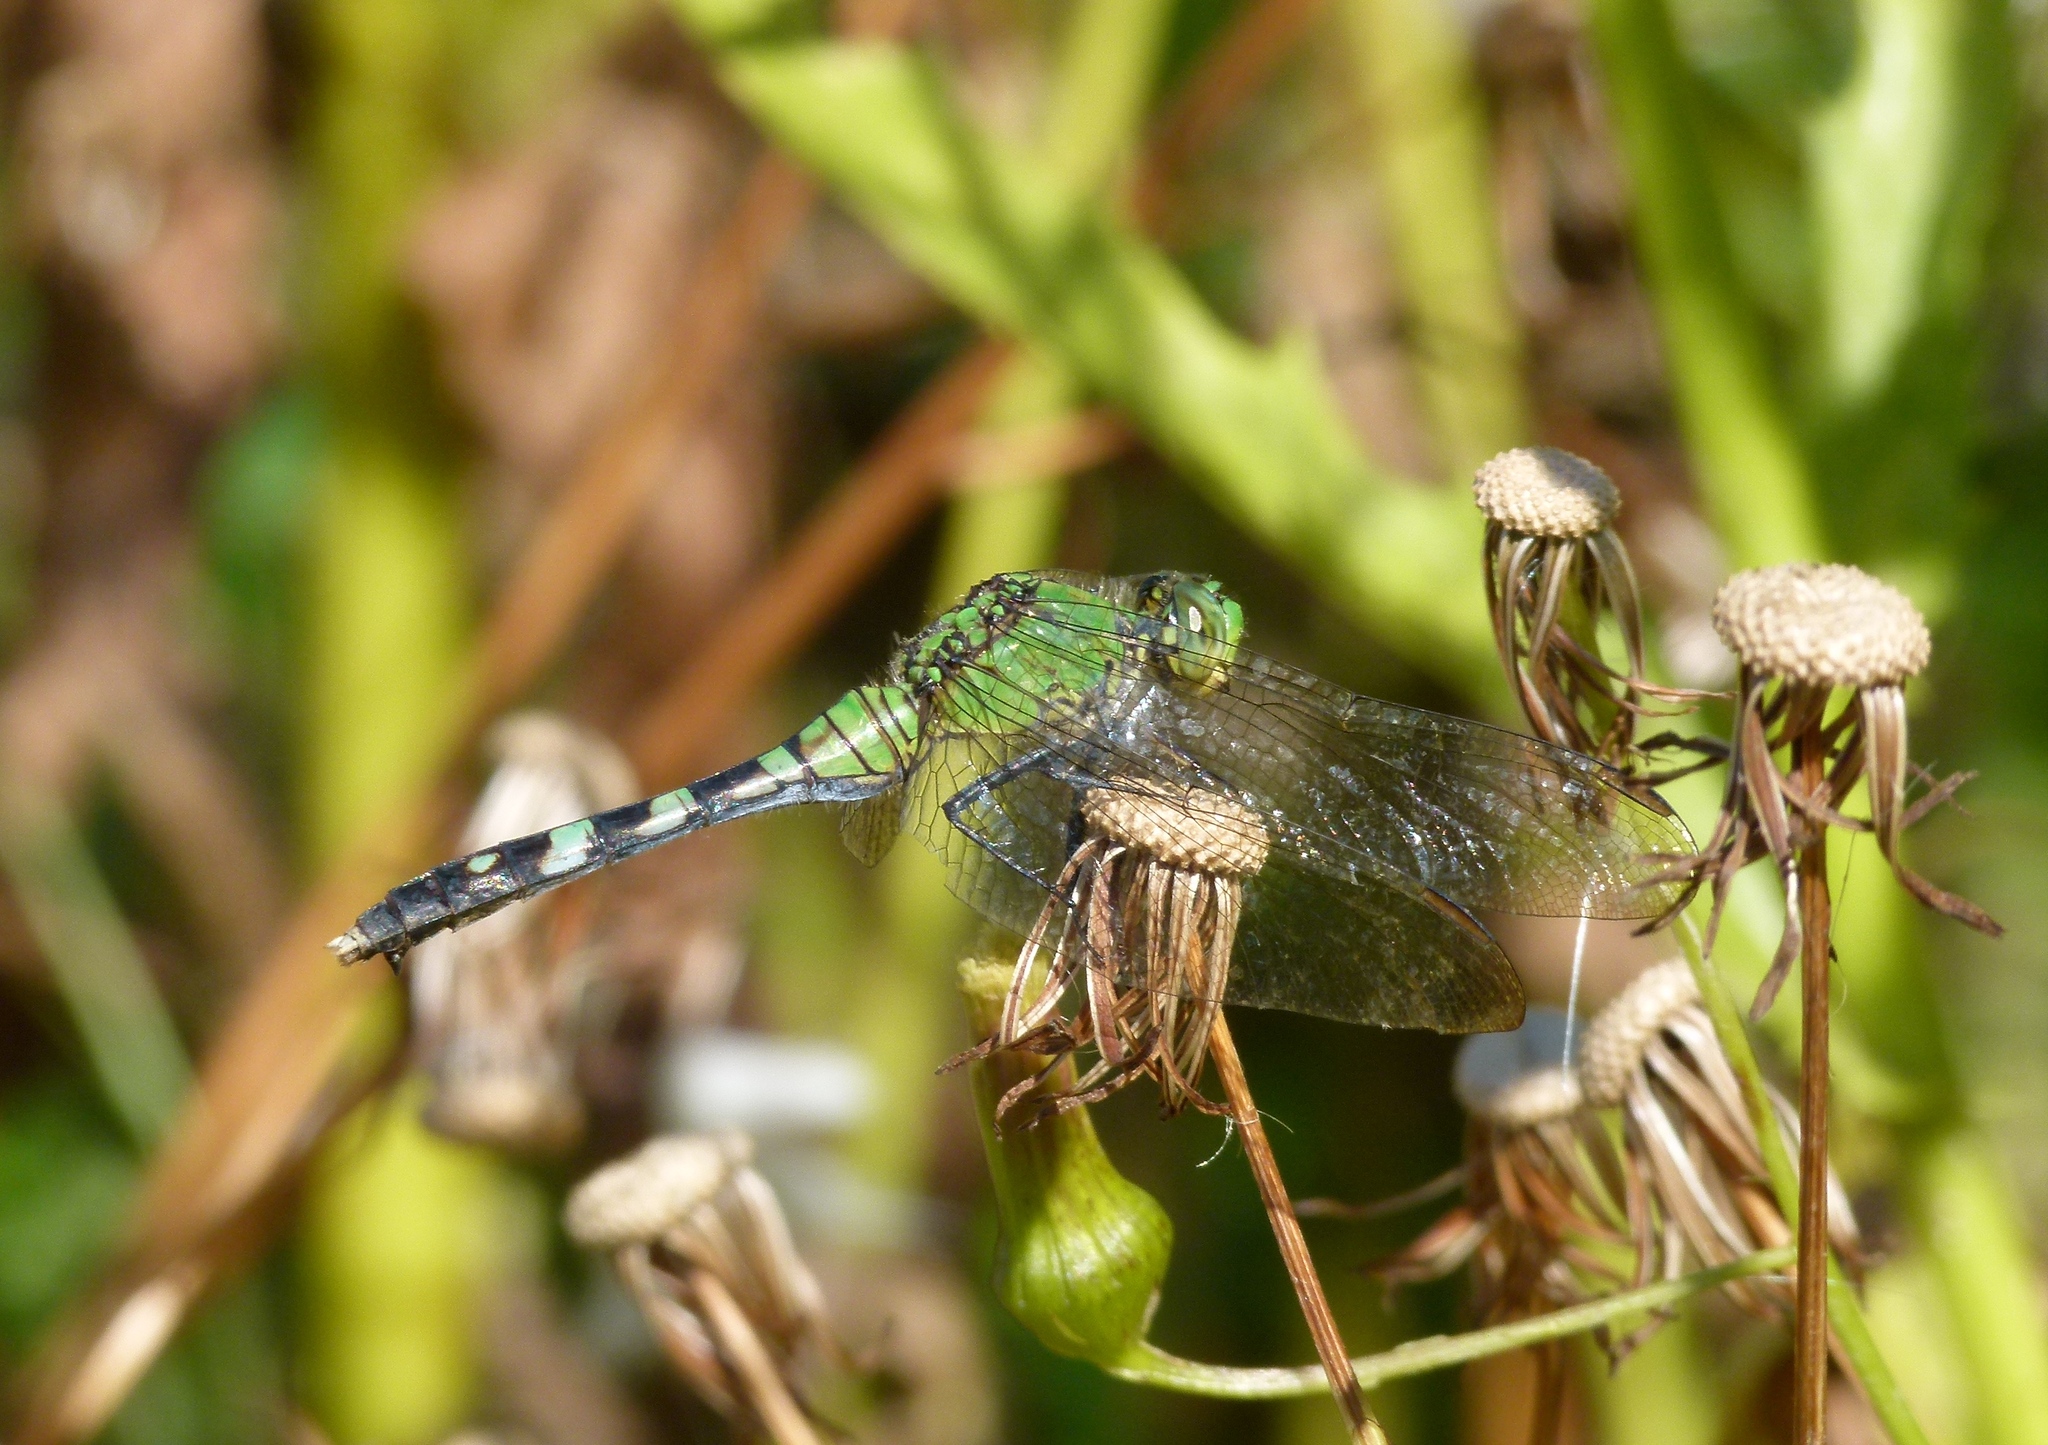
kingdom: Animalia
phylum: Arthropoda
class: Insecta
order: Odonata
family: Libellulidae
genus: Erythemis
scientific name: Erythemis simplicicollis
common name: Eastern pondhawk
